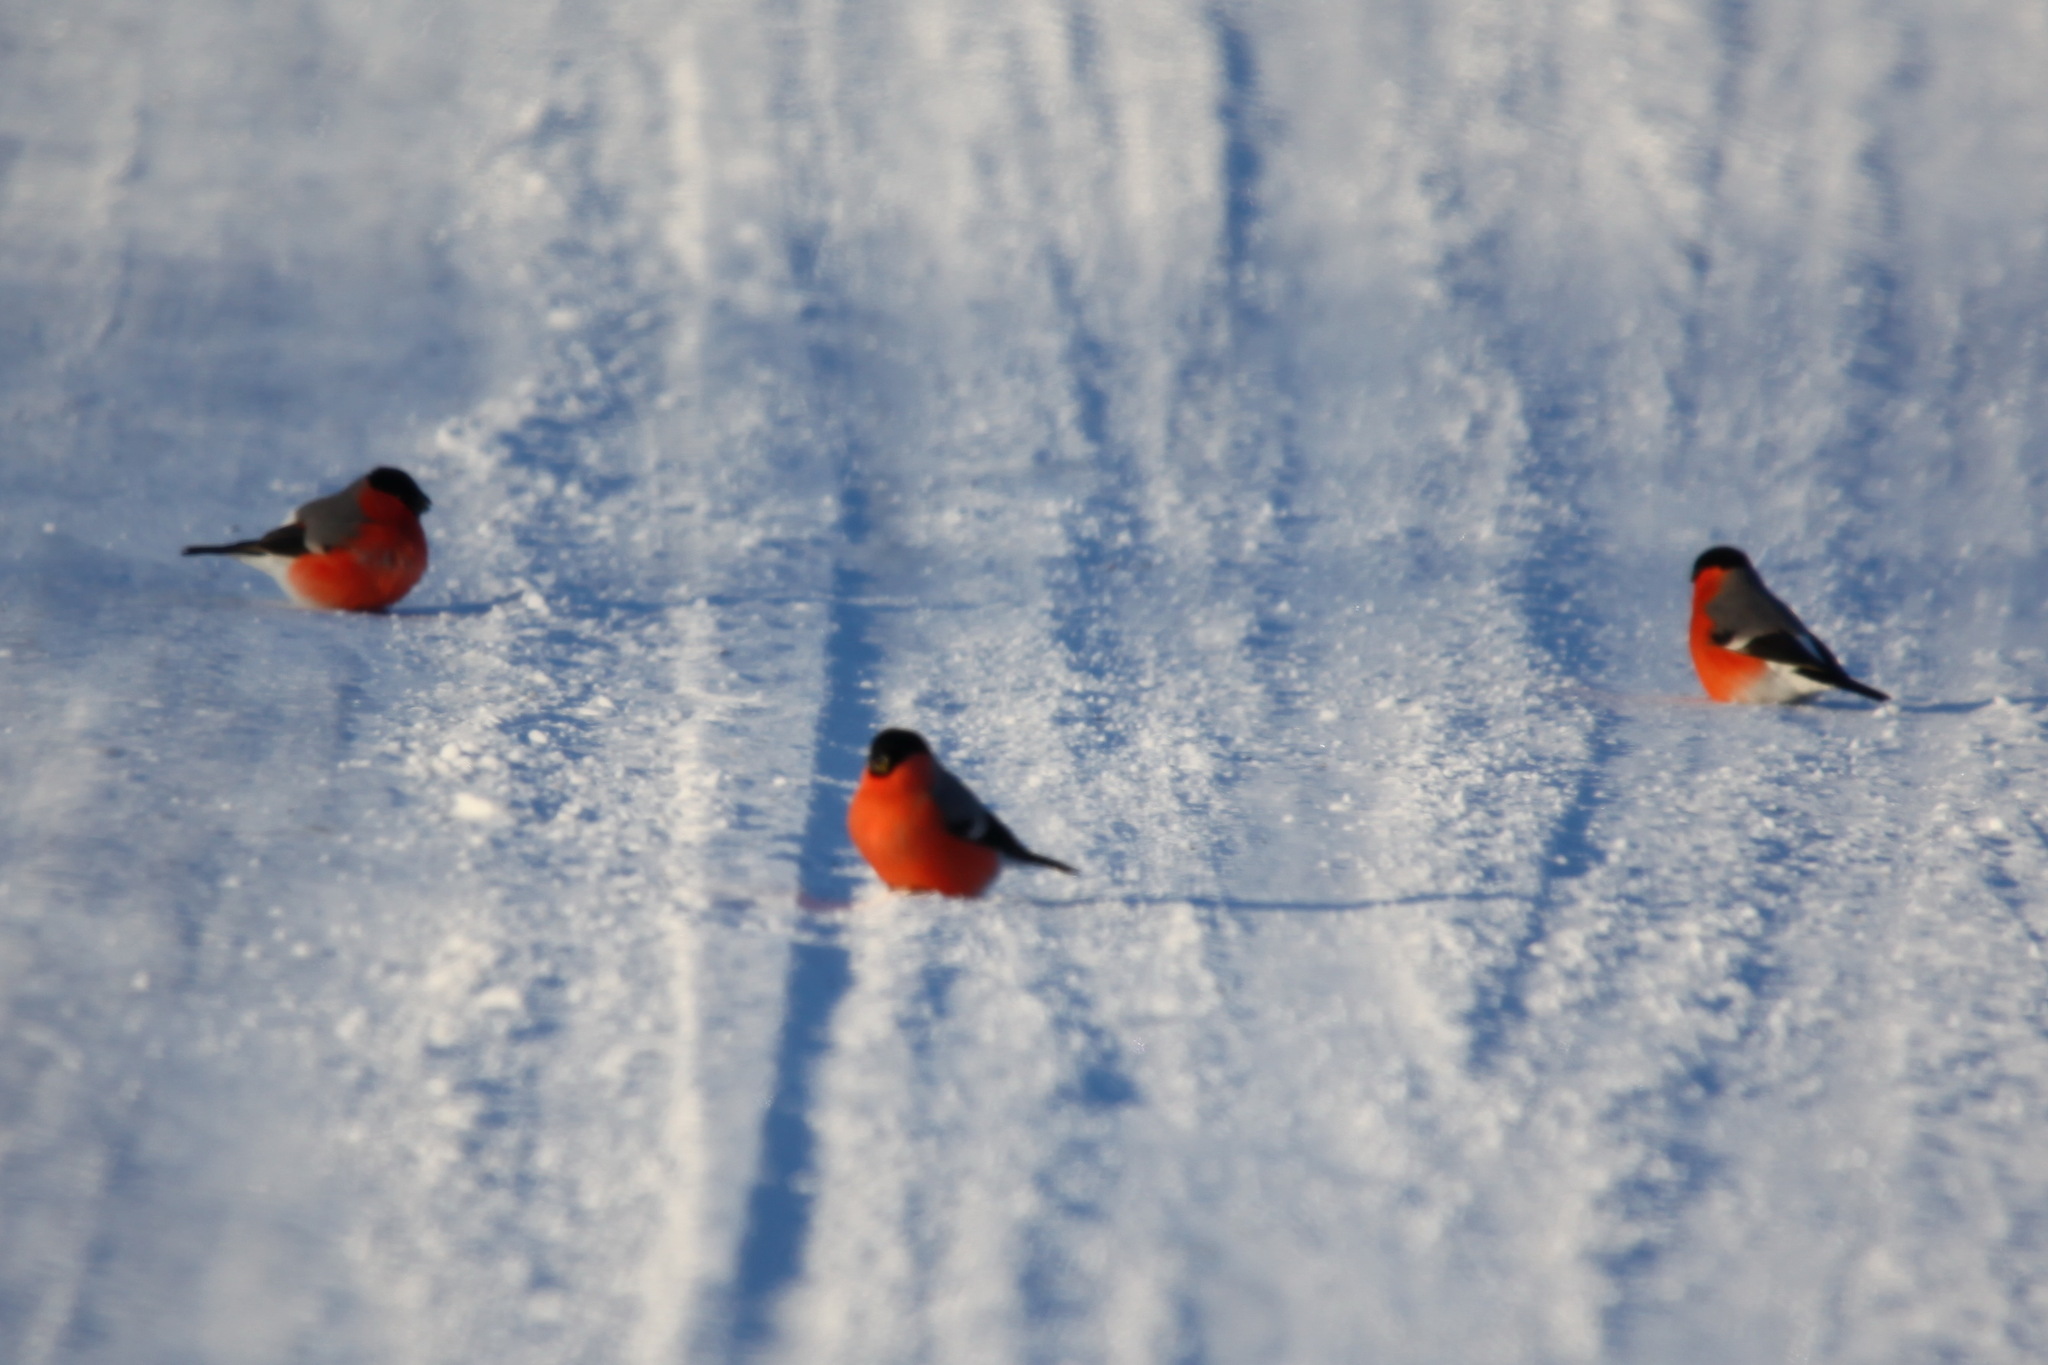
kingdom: Animalia
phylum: Chordata
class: Aves
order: Passeriformes
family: Fringillidae
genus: Pyrrhula
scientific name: Pyrrhula pyrrhula
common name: Eurasian bullfinch
